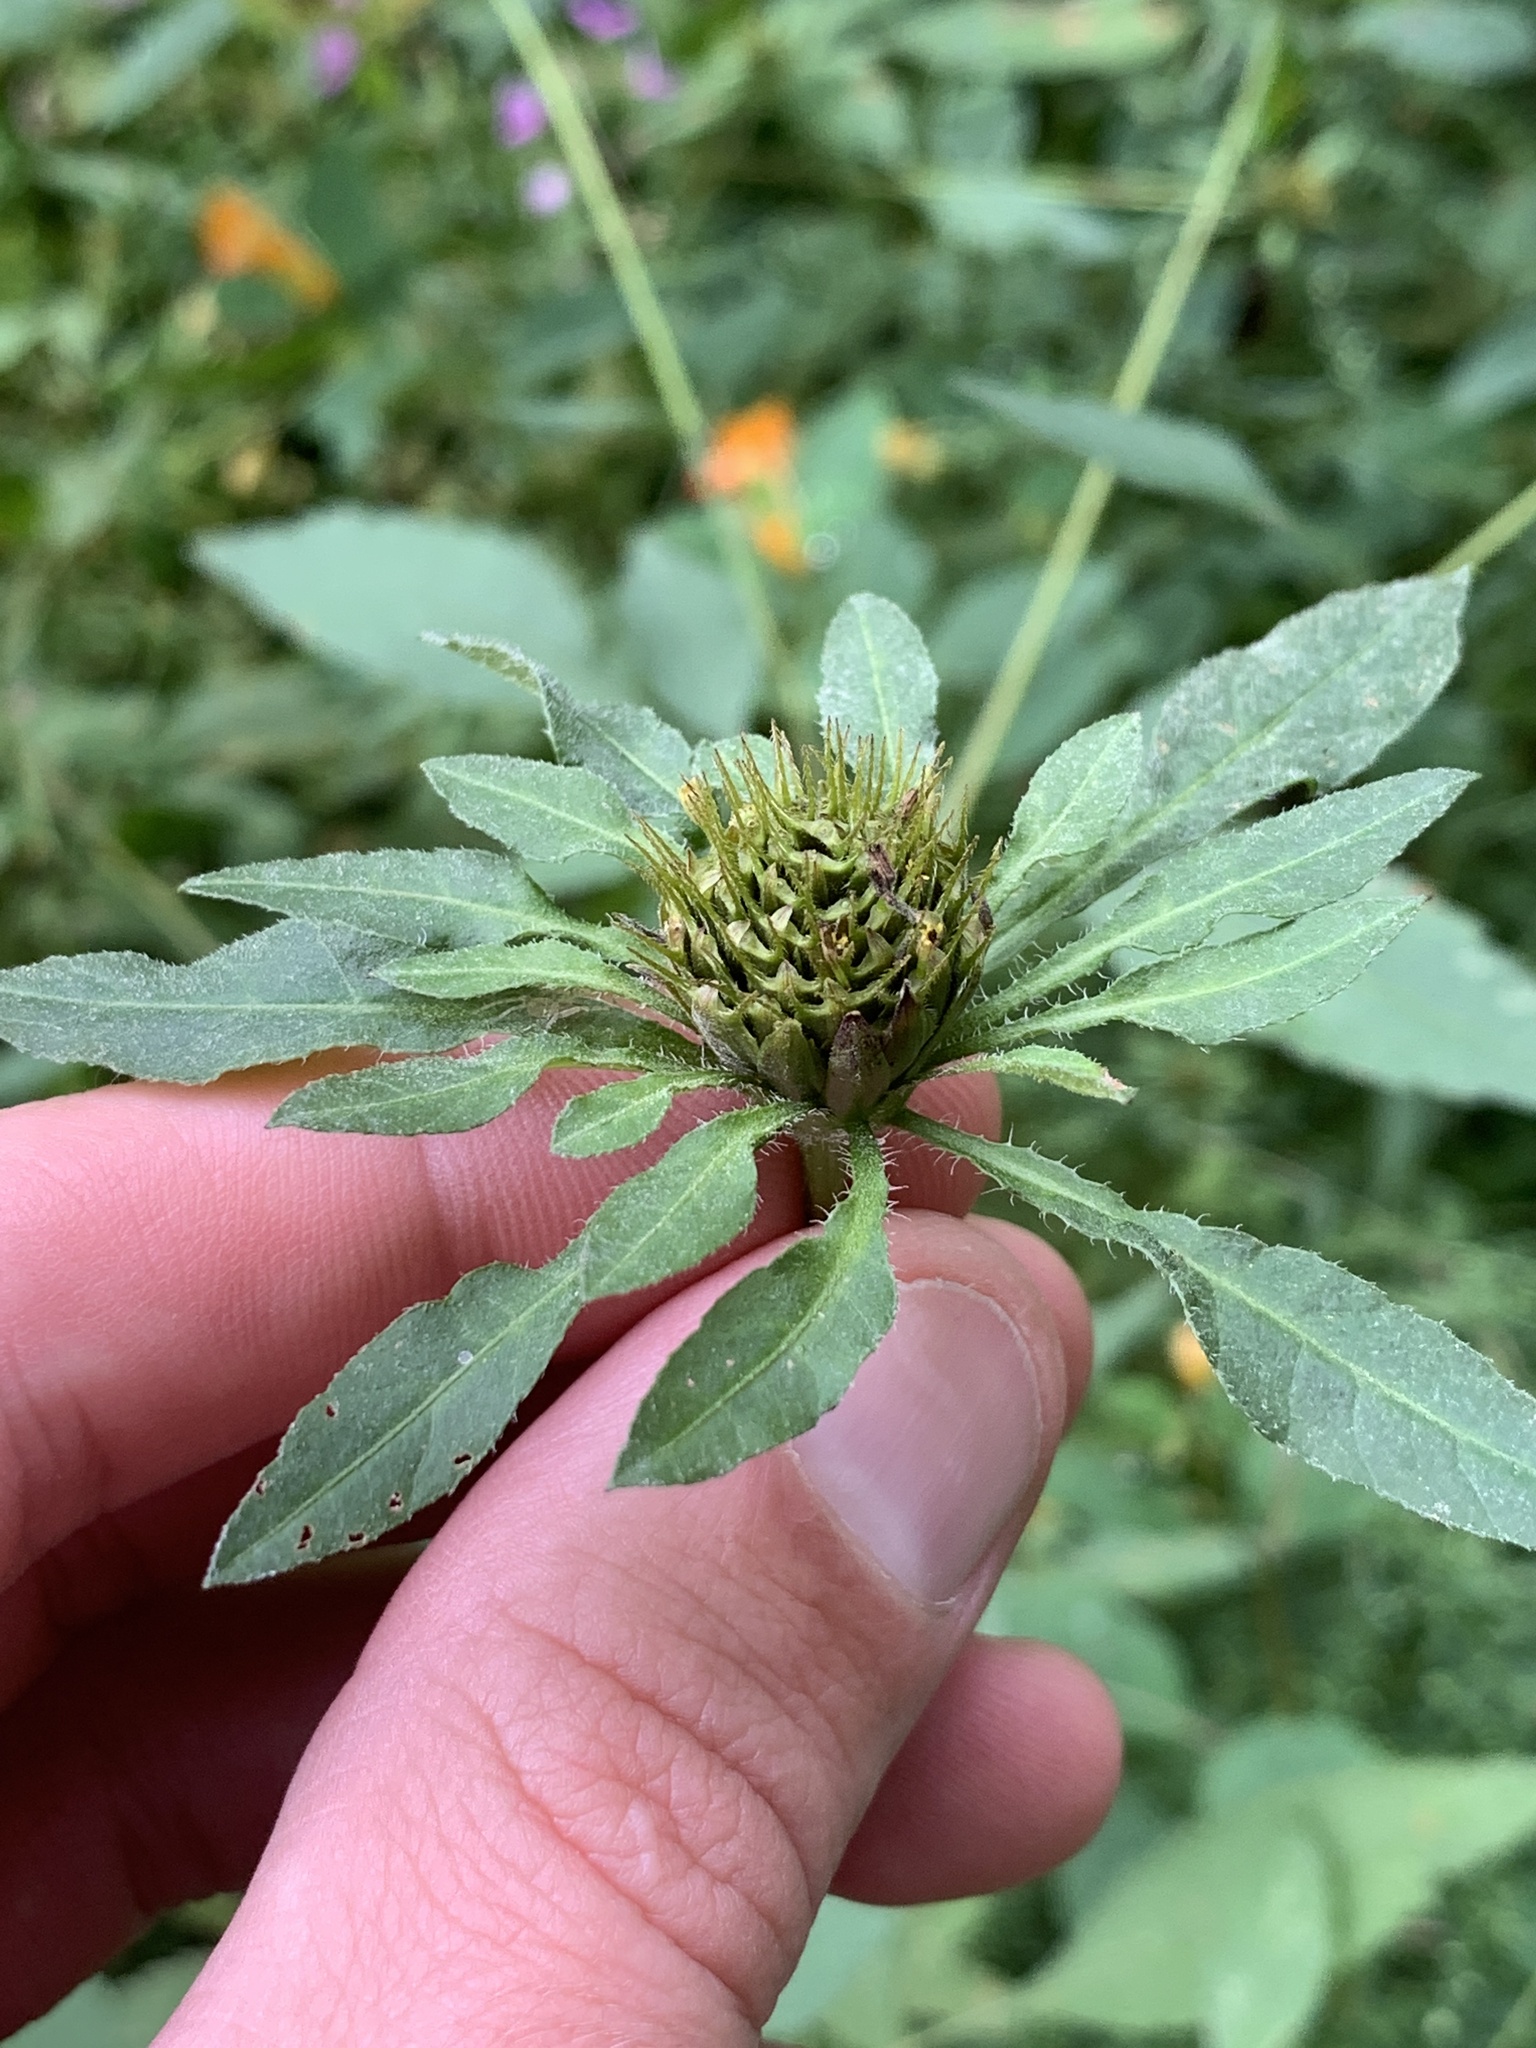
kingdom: Plantae
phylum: Tracheophyta
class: Magnoliopsida
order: Asterales
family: Asteraceae
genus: Bidens
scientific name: Bidens vulgata
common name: Tall beggarticks
